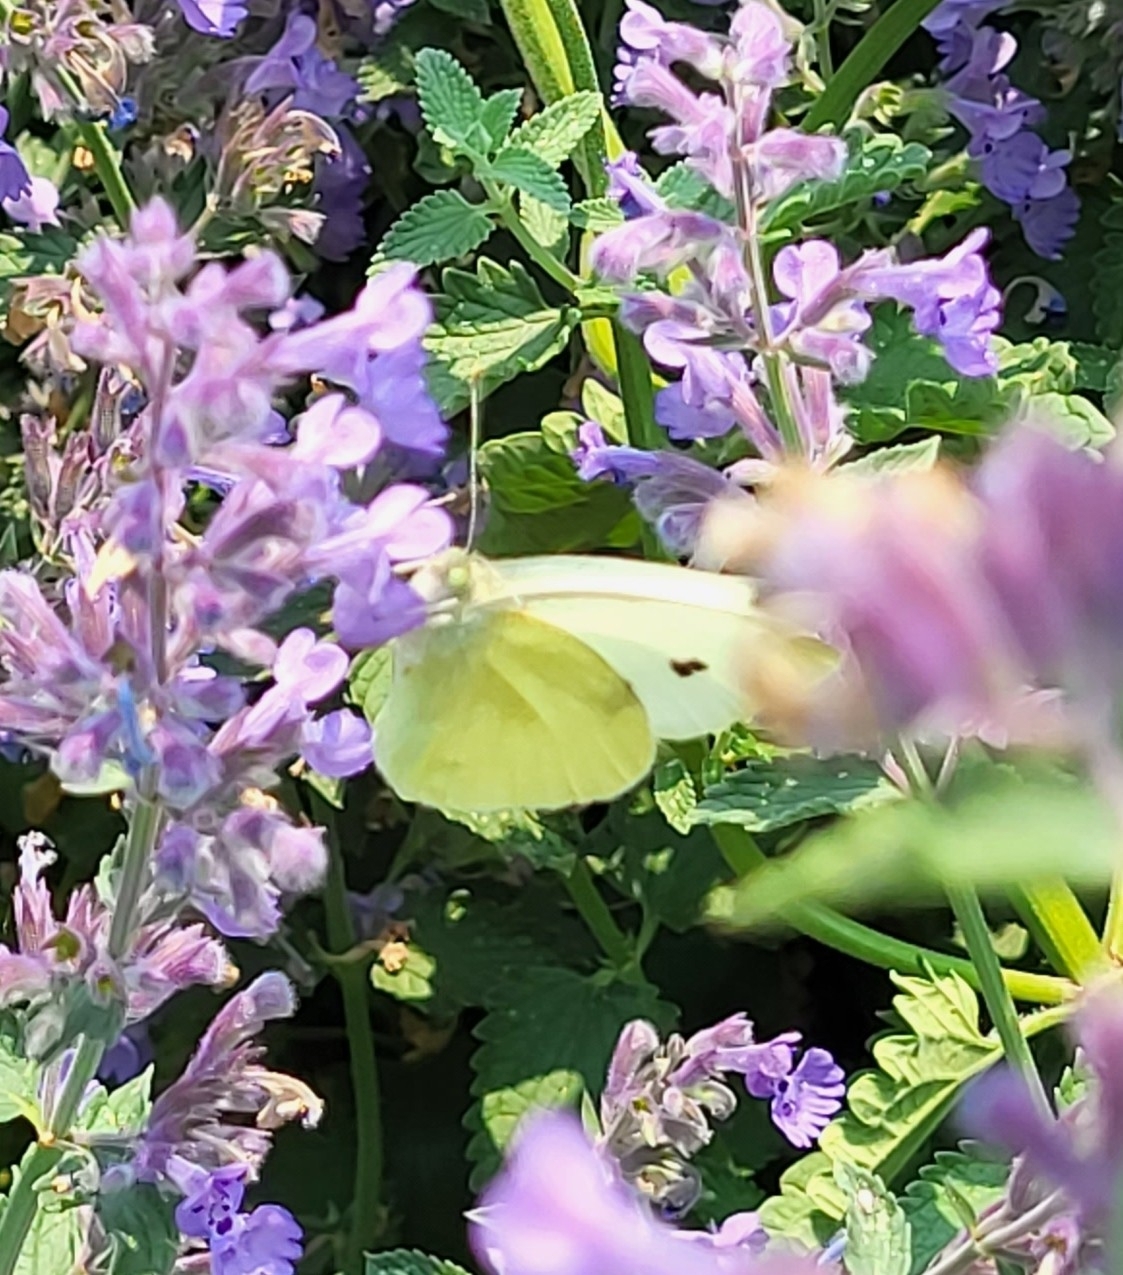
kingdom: Animalia
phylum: Arthropoda
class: Insecta
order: Lepidoptera
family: Pieridae
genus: Pieris
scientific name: Pieris rapae
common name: Small white
